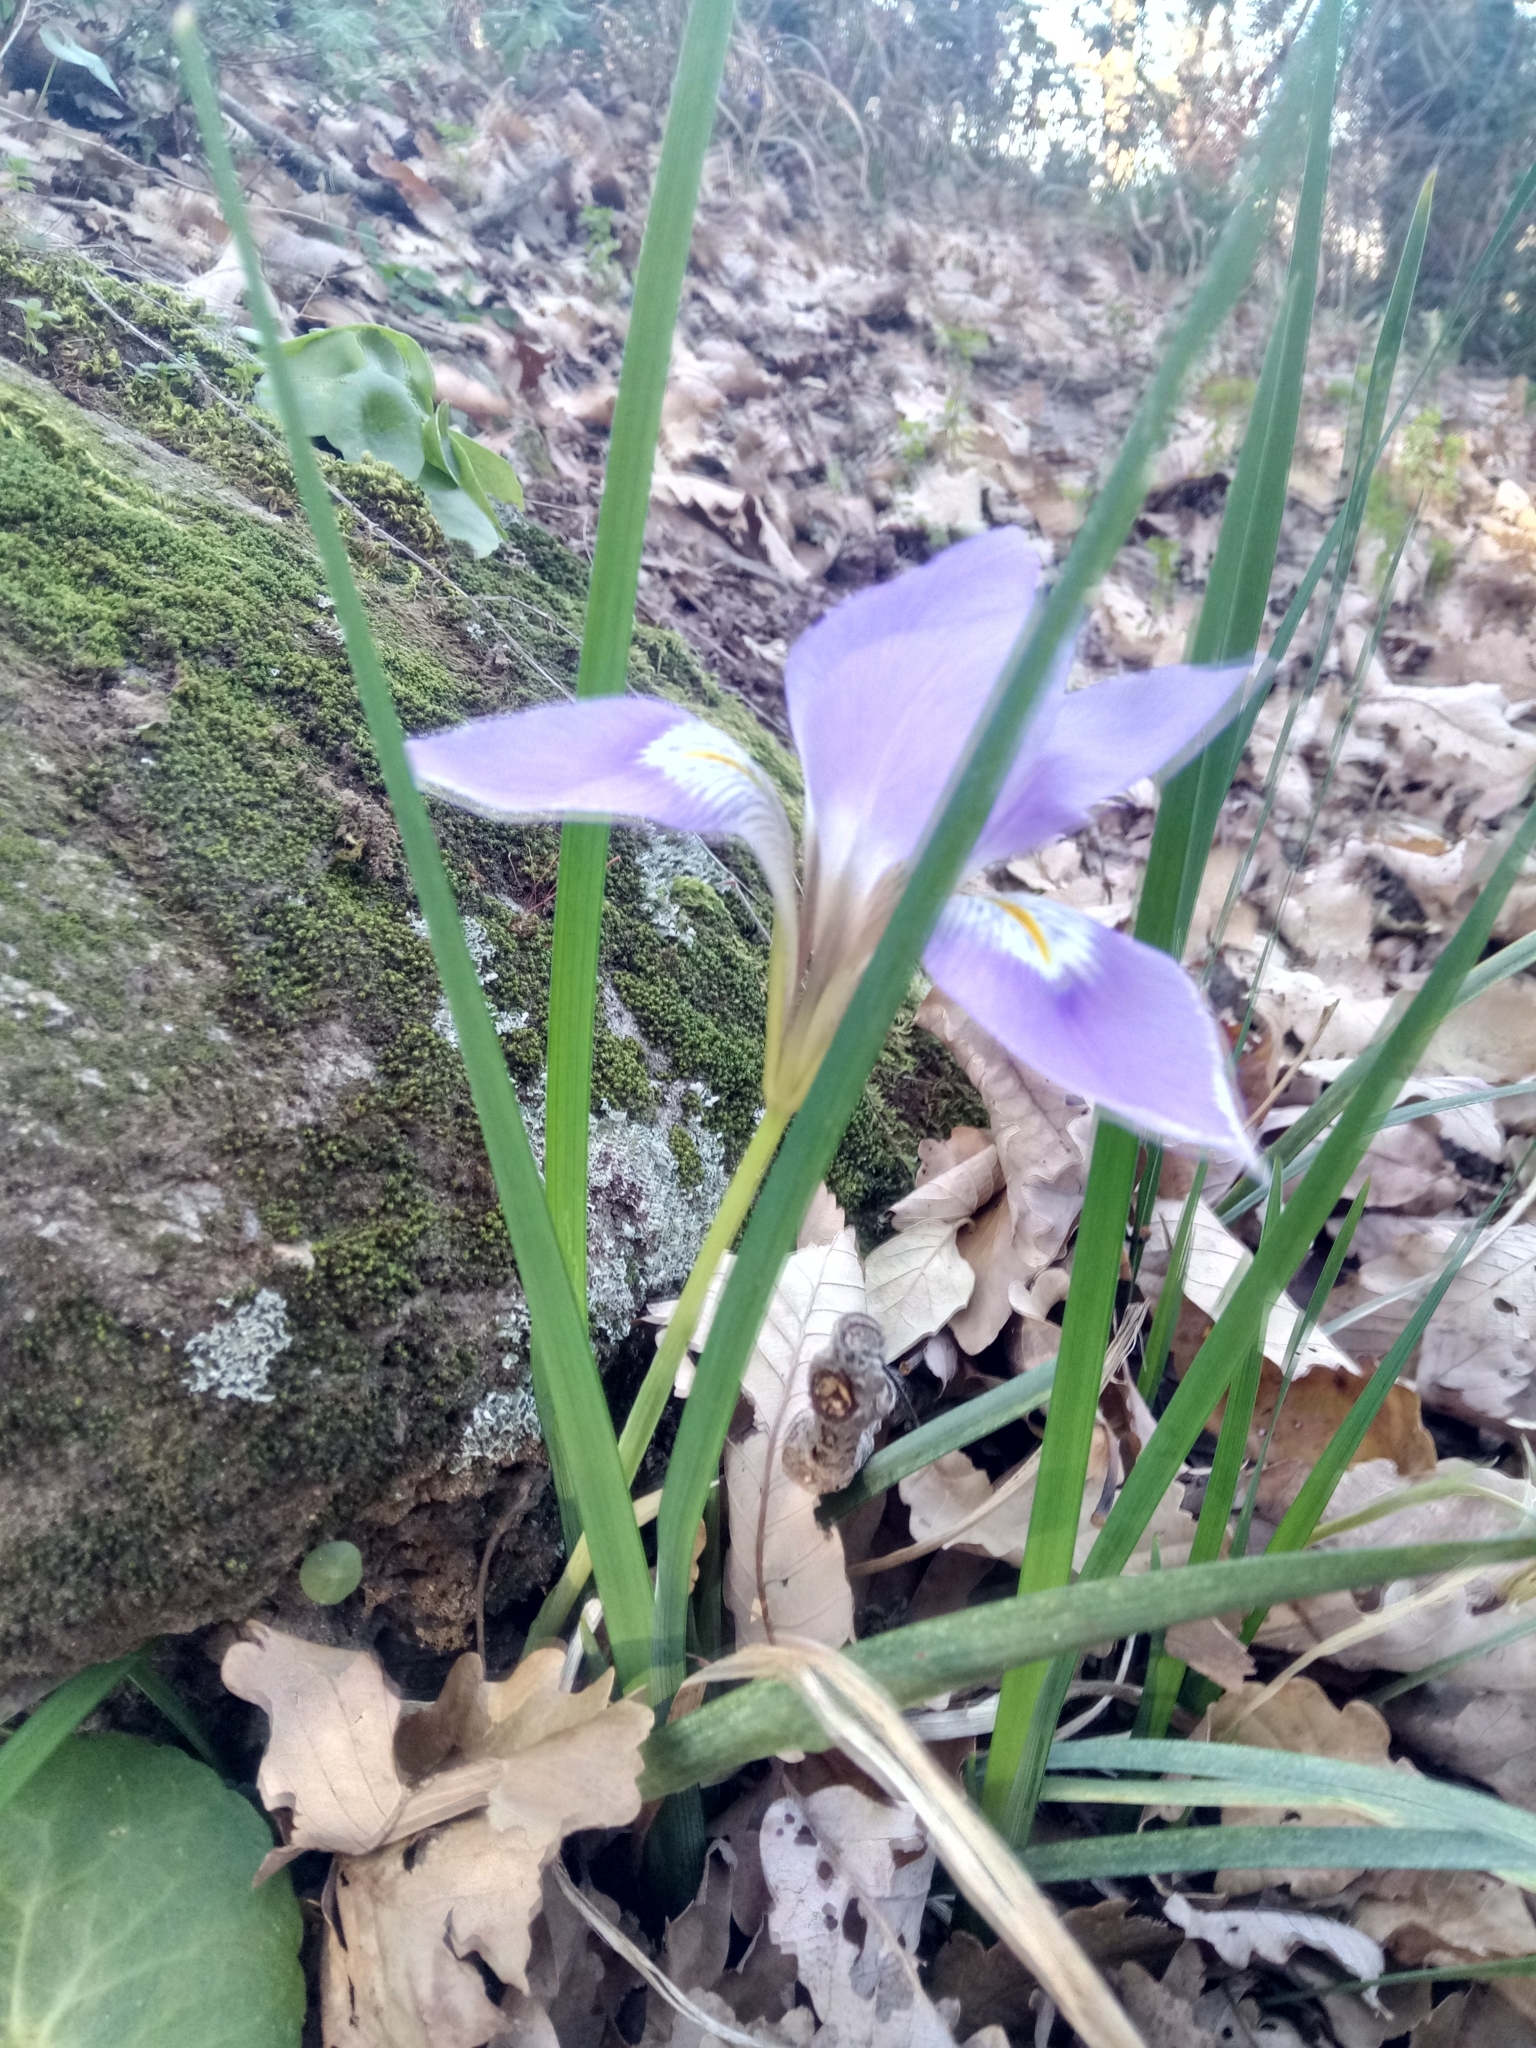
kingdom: Plantae
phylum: Tracheophyta
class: Liliopsida
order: Asparagales
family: Iridaceae
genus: Iris
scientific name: Iris unguicularis
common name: Algerian iris
